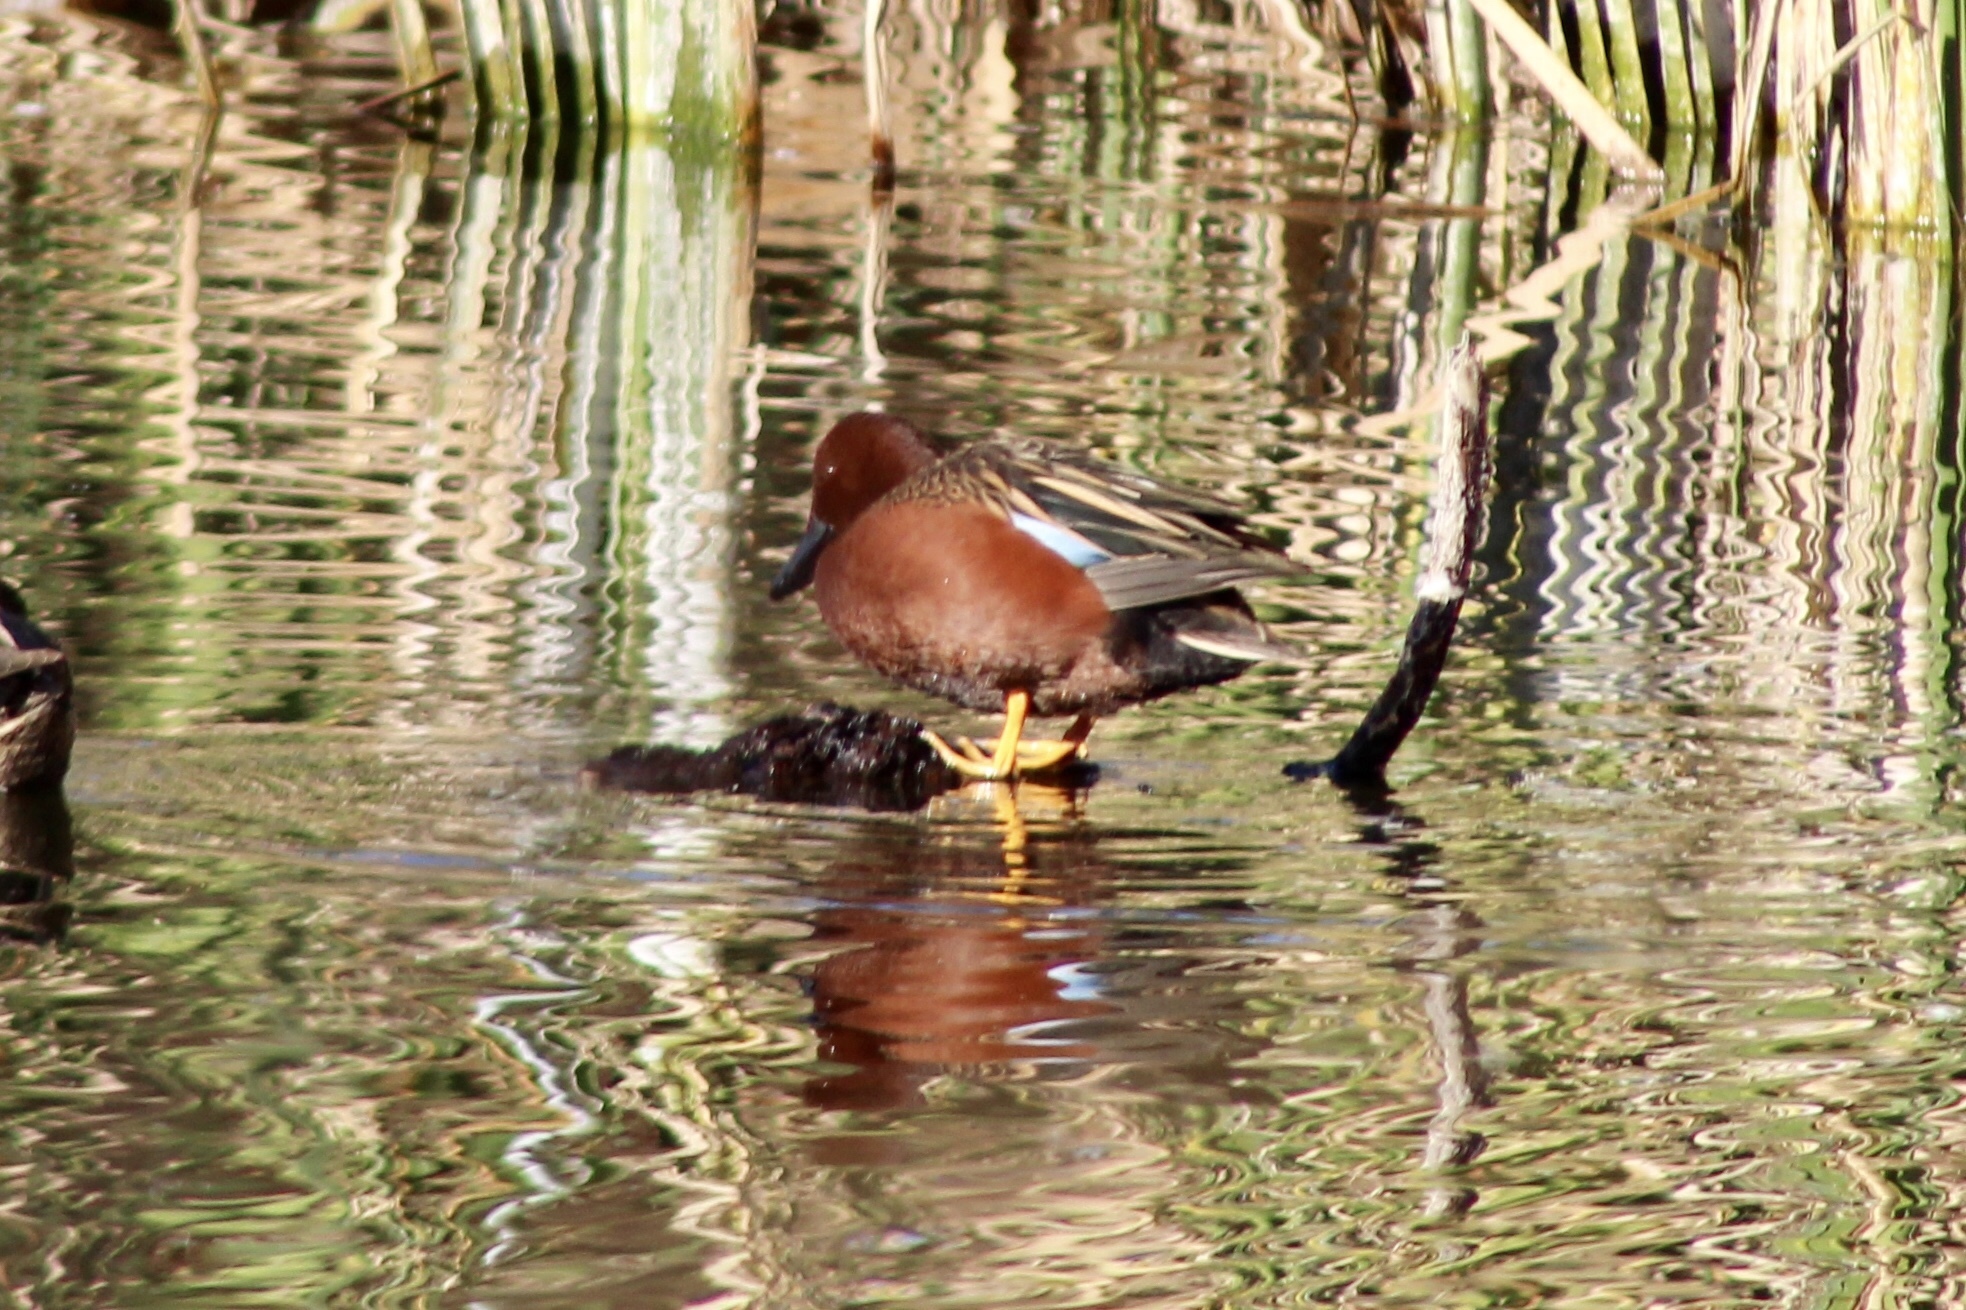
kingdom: Animalia
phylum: Chordata
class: Aves
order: Anseriformes
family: Anatidae
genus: Spatula
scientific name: Spatula cyanoptera
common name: Cinnamon teal
